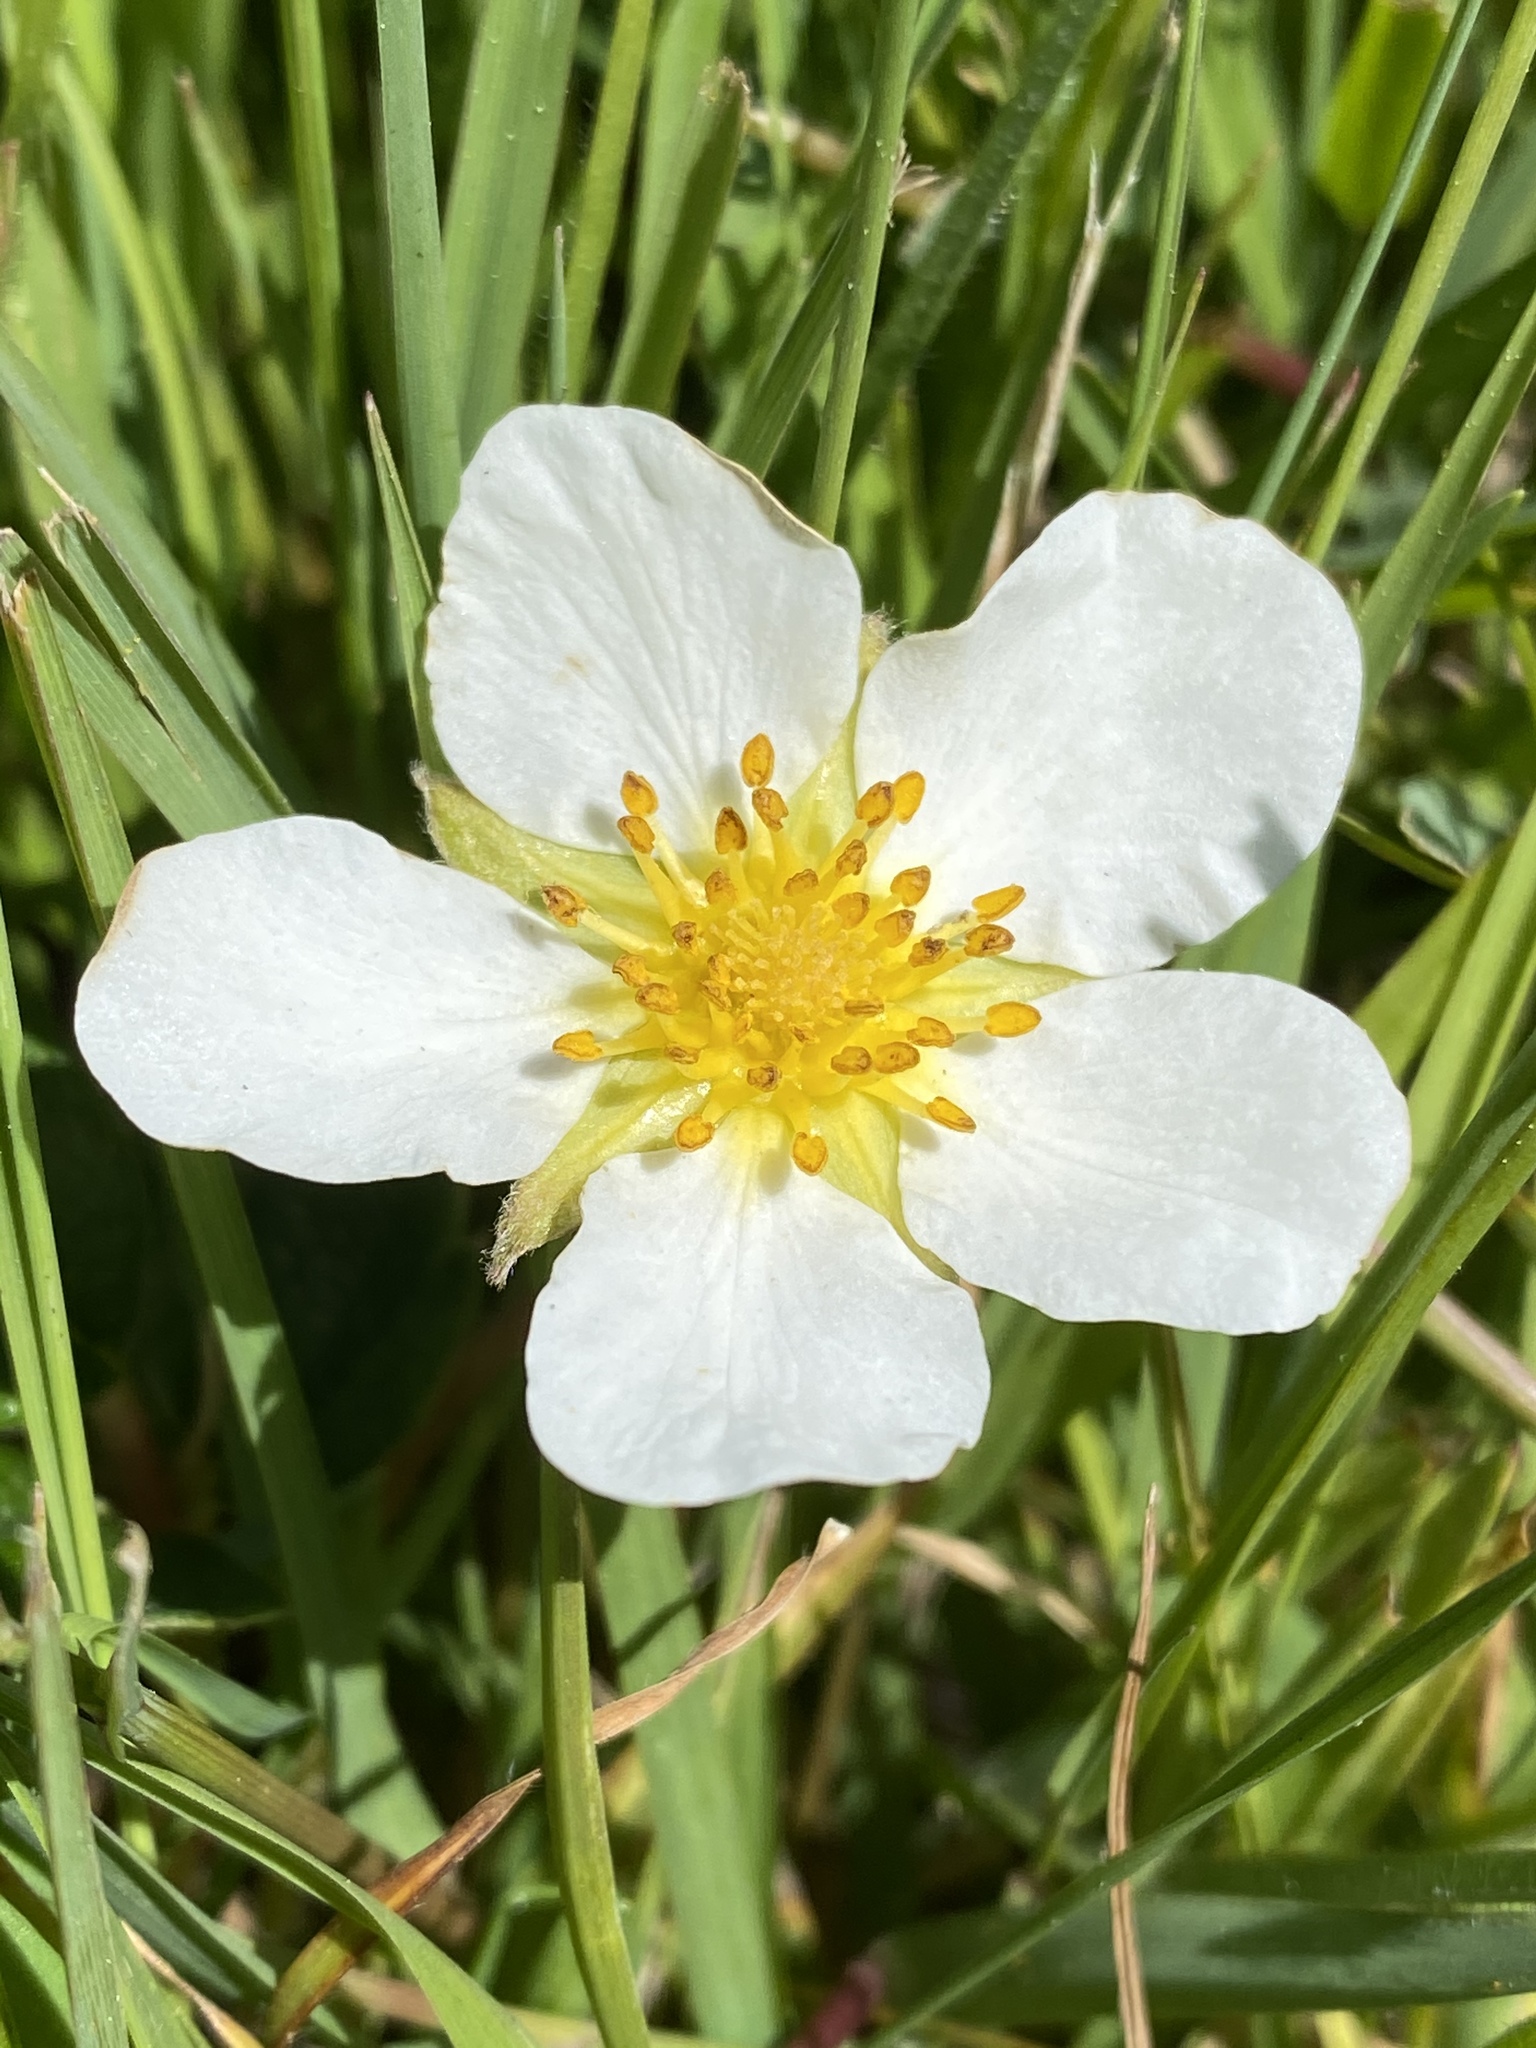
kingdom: Plantae
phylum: Tracheophyta
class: Magnoliopsida
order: Rosales
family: Rosaceae
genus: Fragaria
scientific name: Fragaria chiloensis
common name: Beach strawberry
